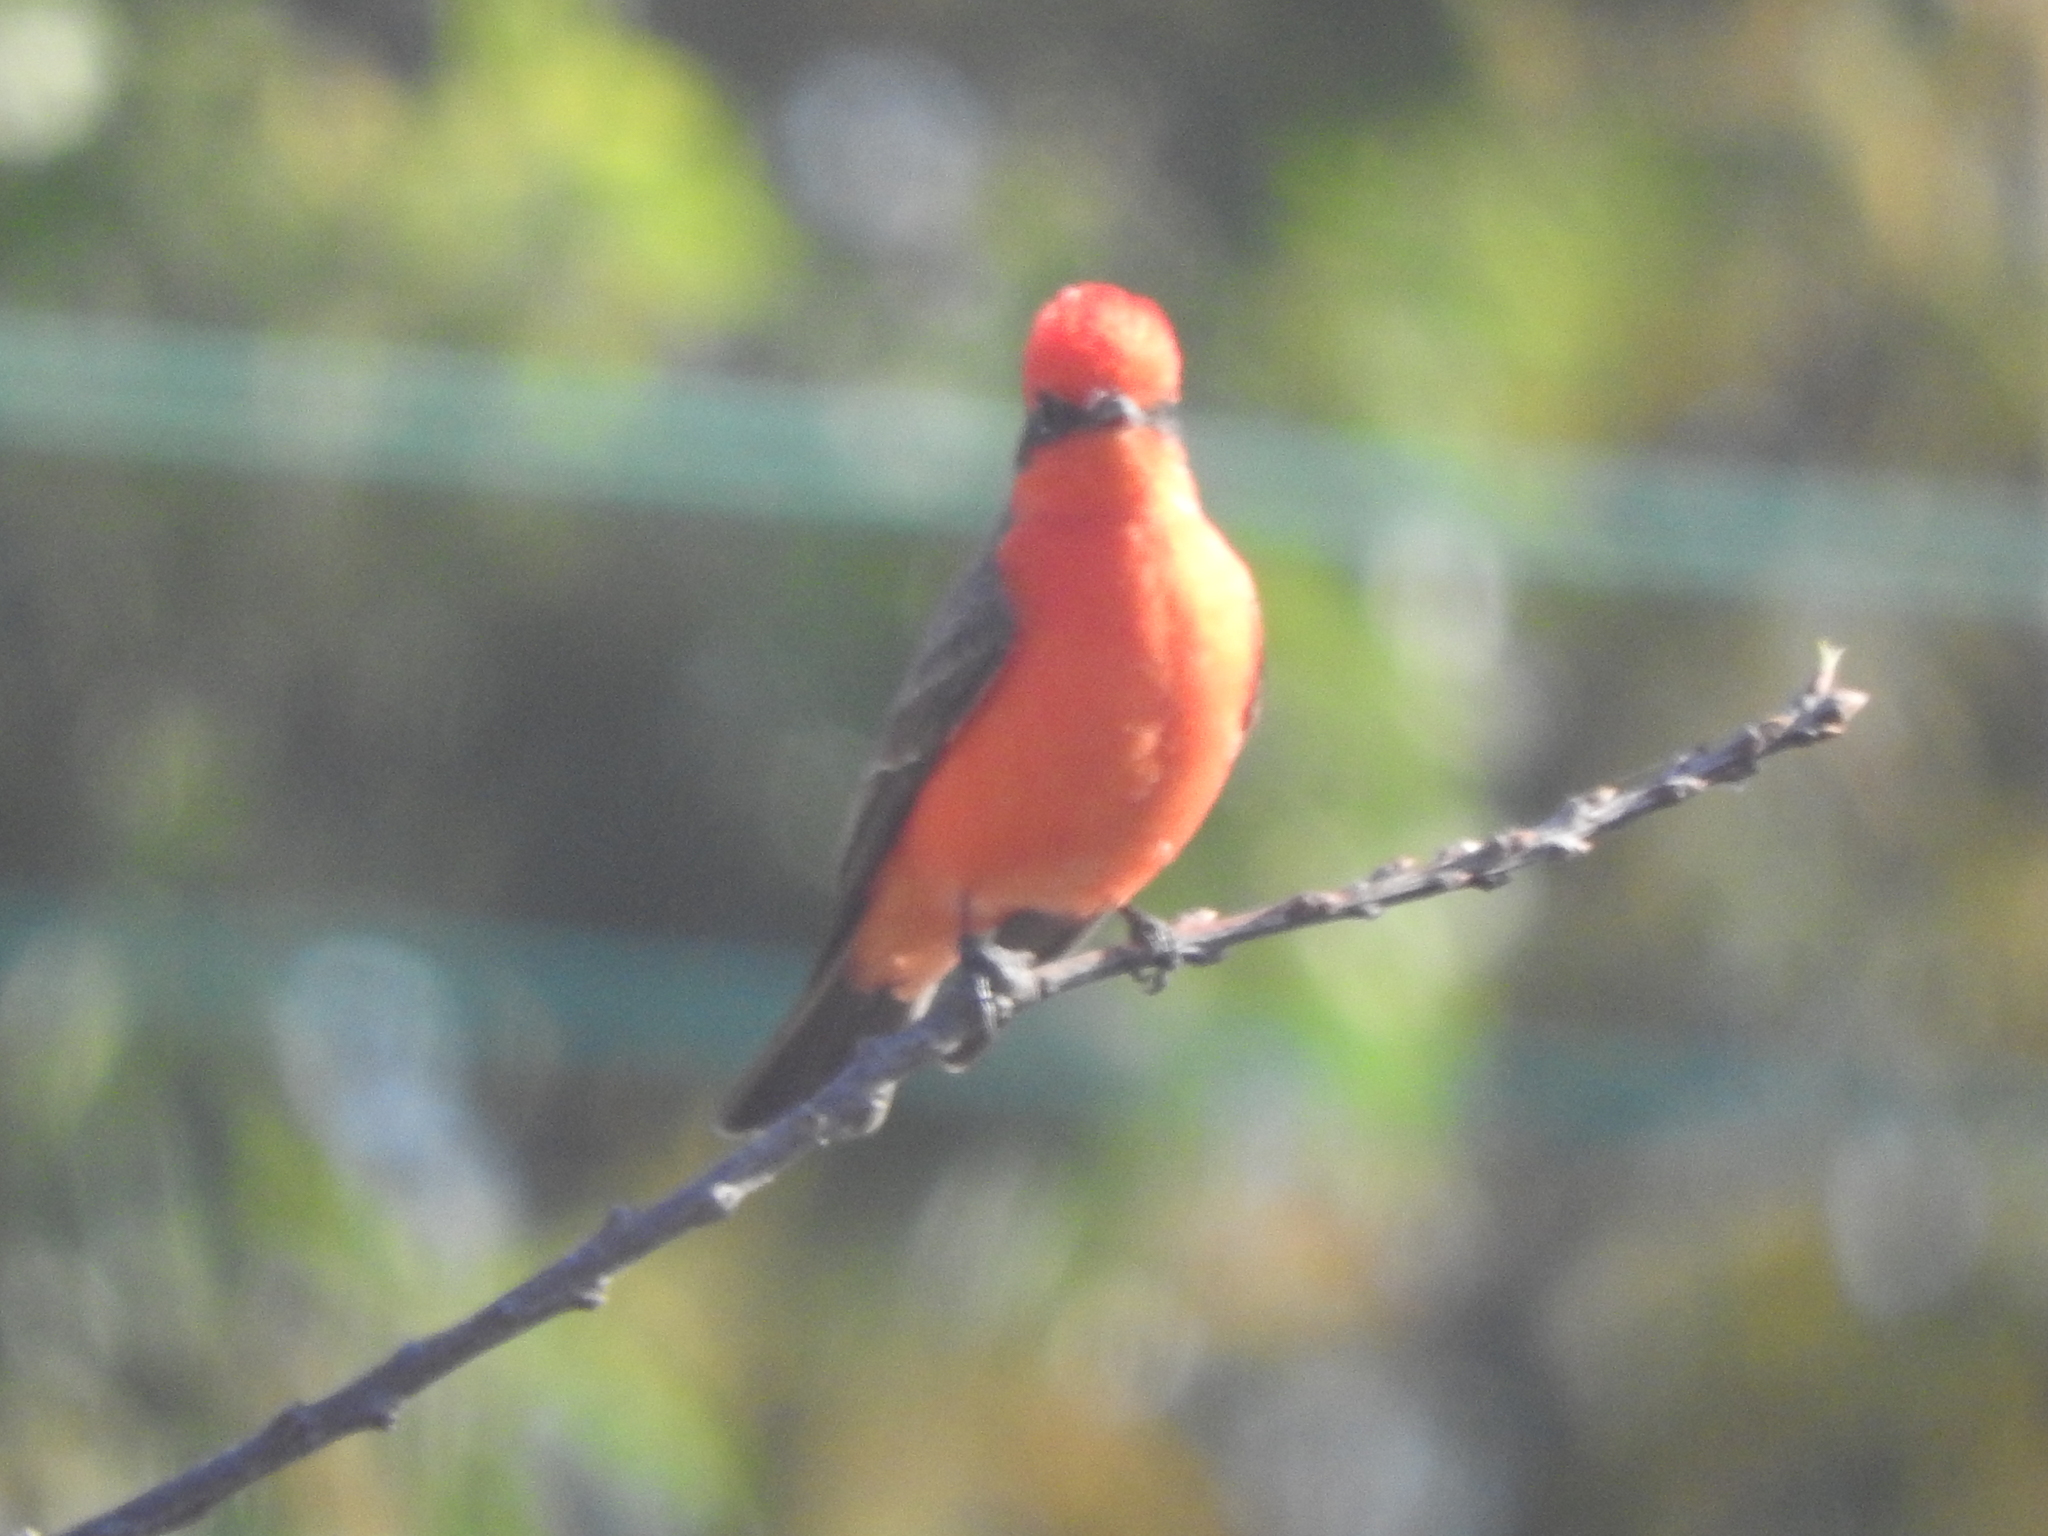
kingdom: Animalia
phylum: Chordata
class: Aves
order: Passeriformes
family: Tyrannidae
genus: Pyrocephalus
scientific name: Pyrocephalus rubinus
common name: Vermilion flycatcher
